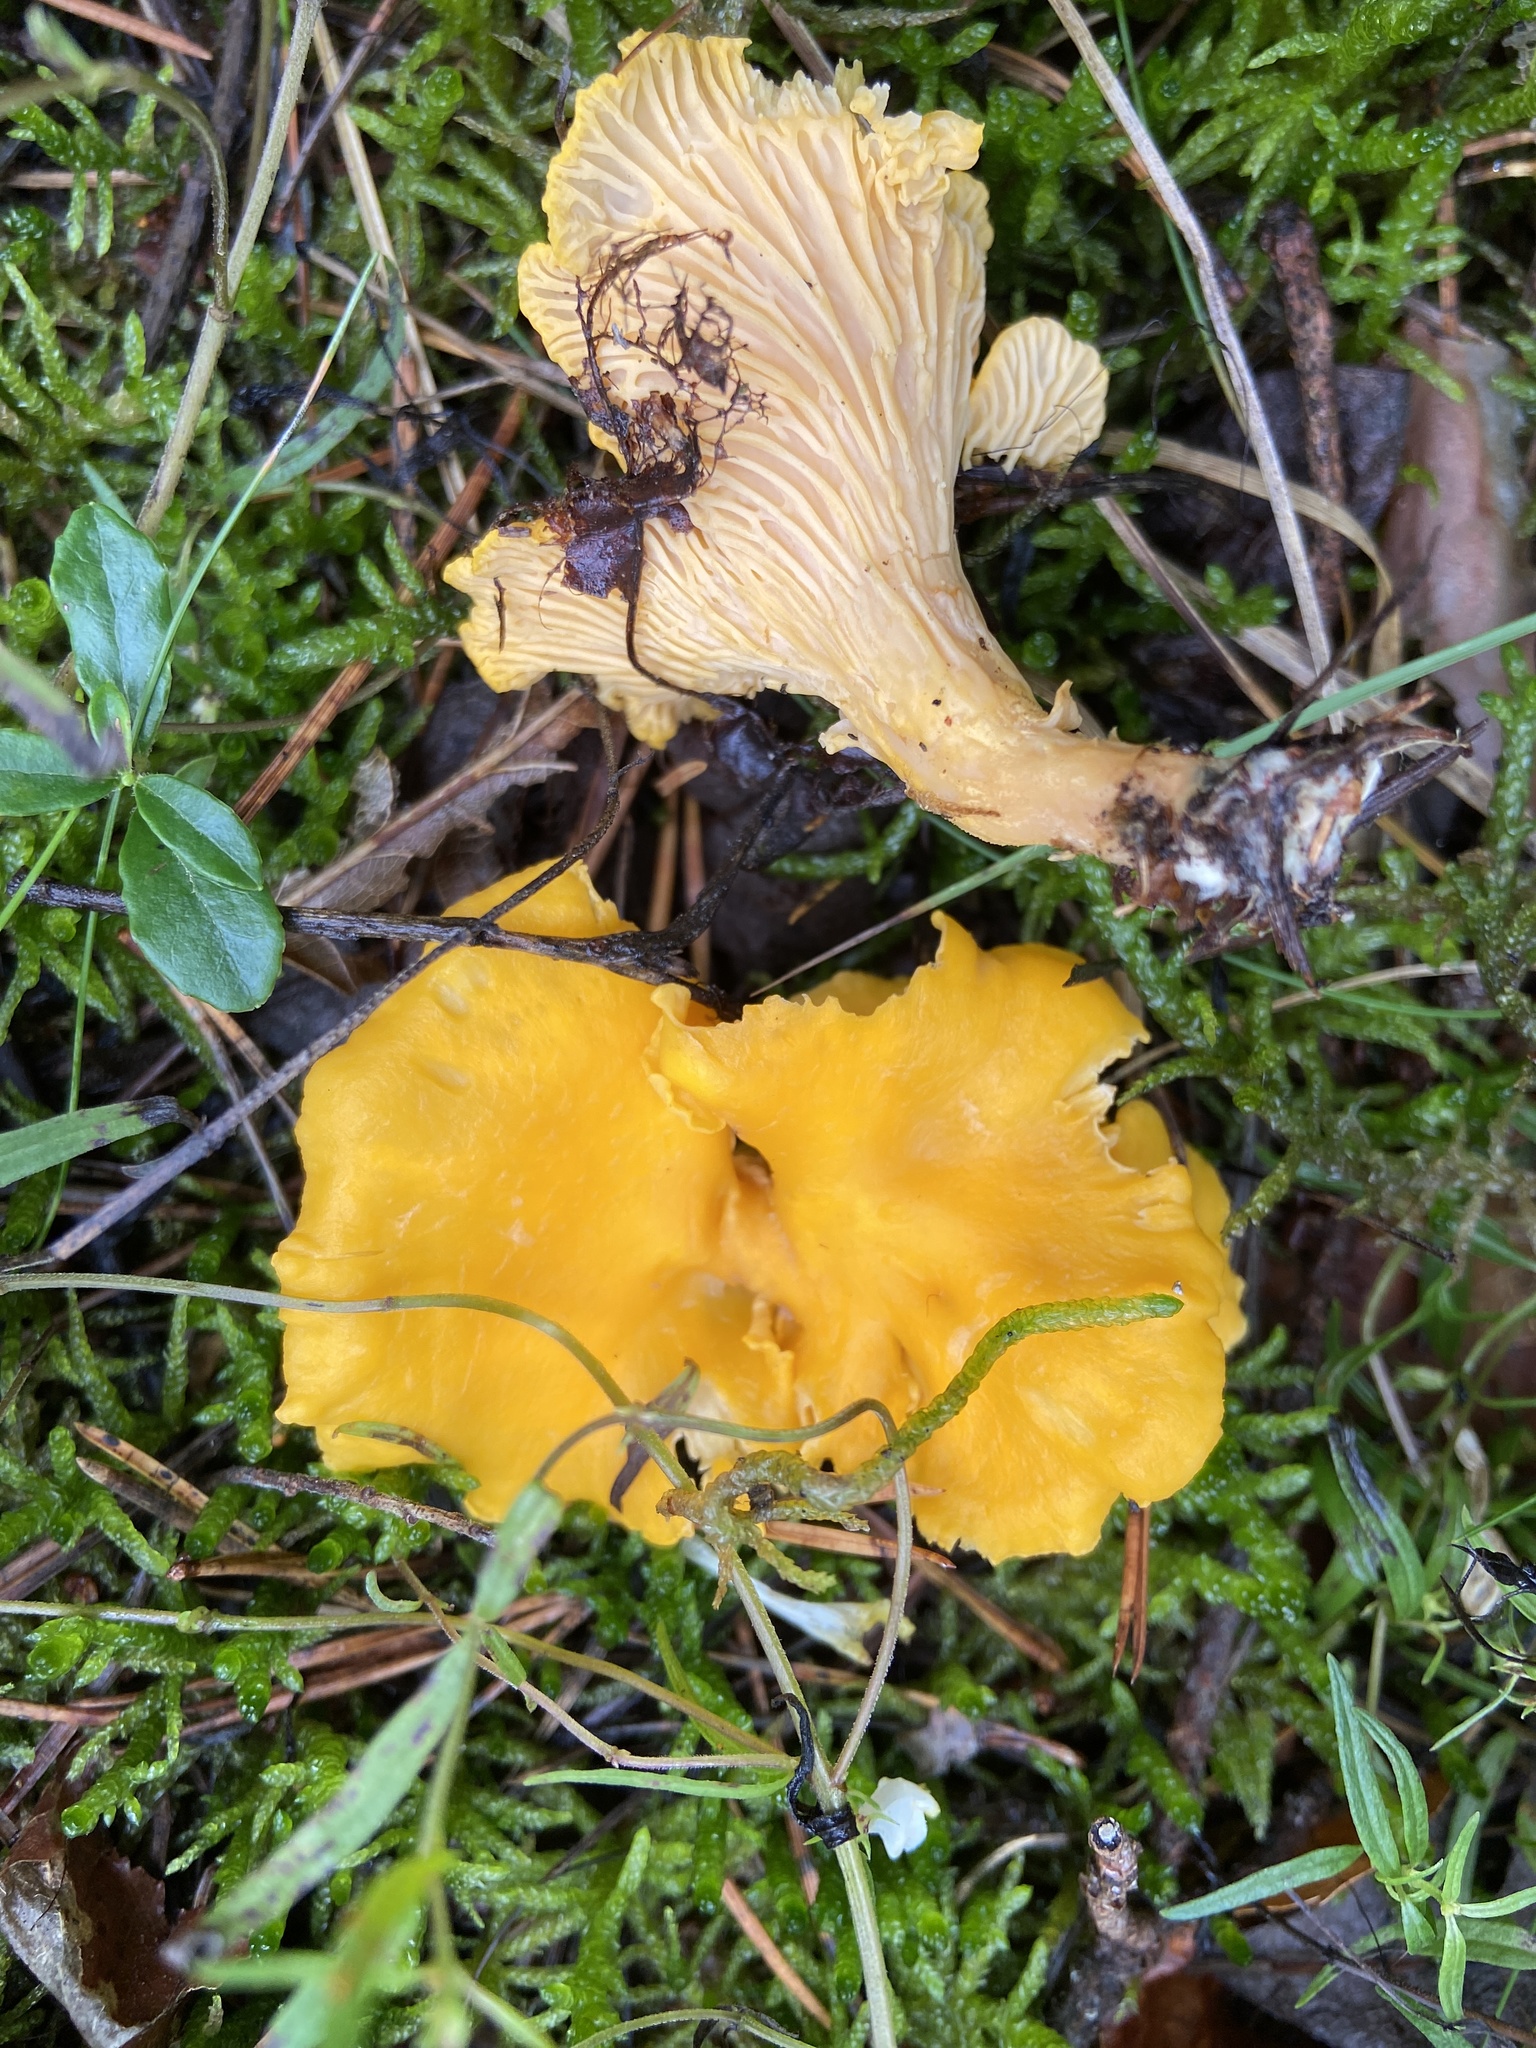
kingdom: Fungi
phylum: Basidiomycota
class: Agaricomycetes
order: Cantharellales
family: Hydnaceae
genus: Cantharellus
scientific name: Cantharellus cibarius
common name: Chanterelle
